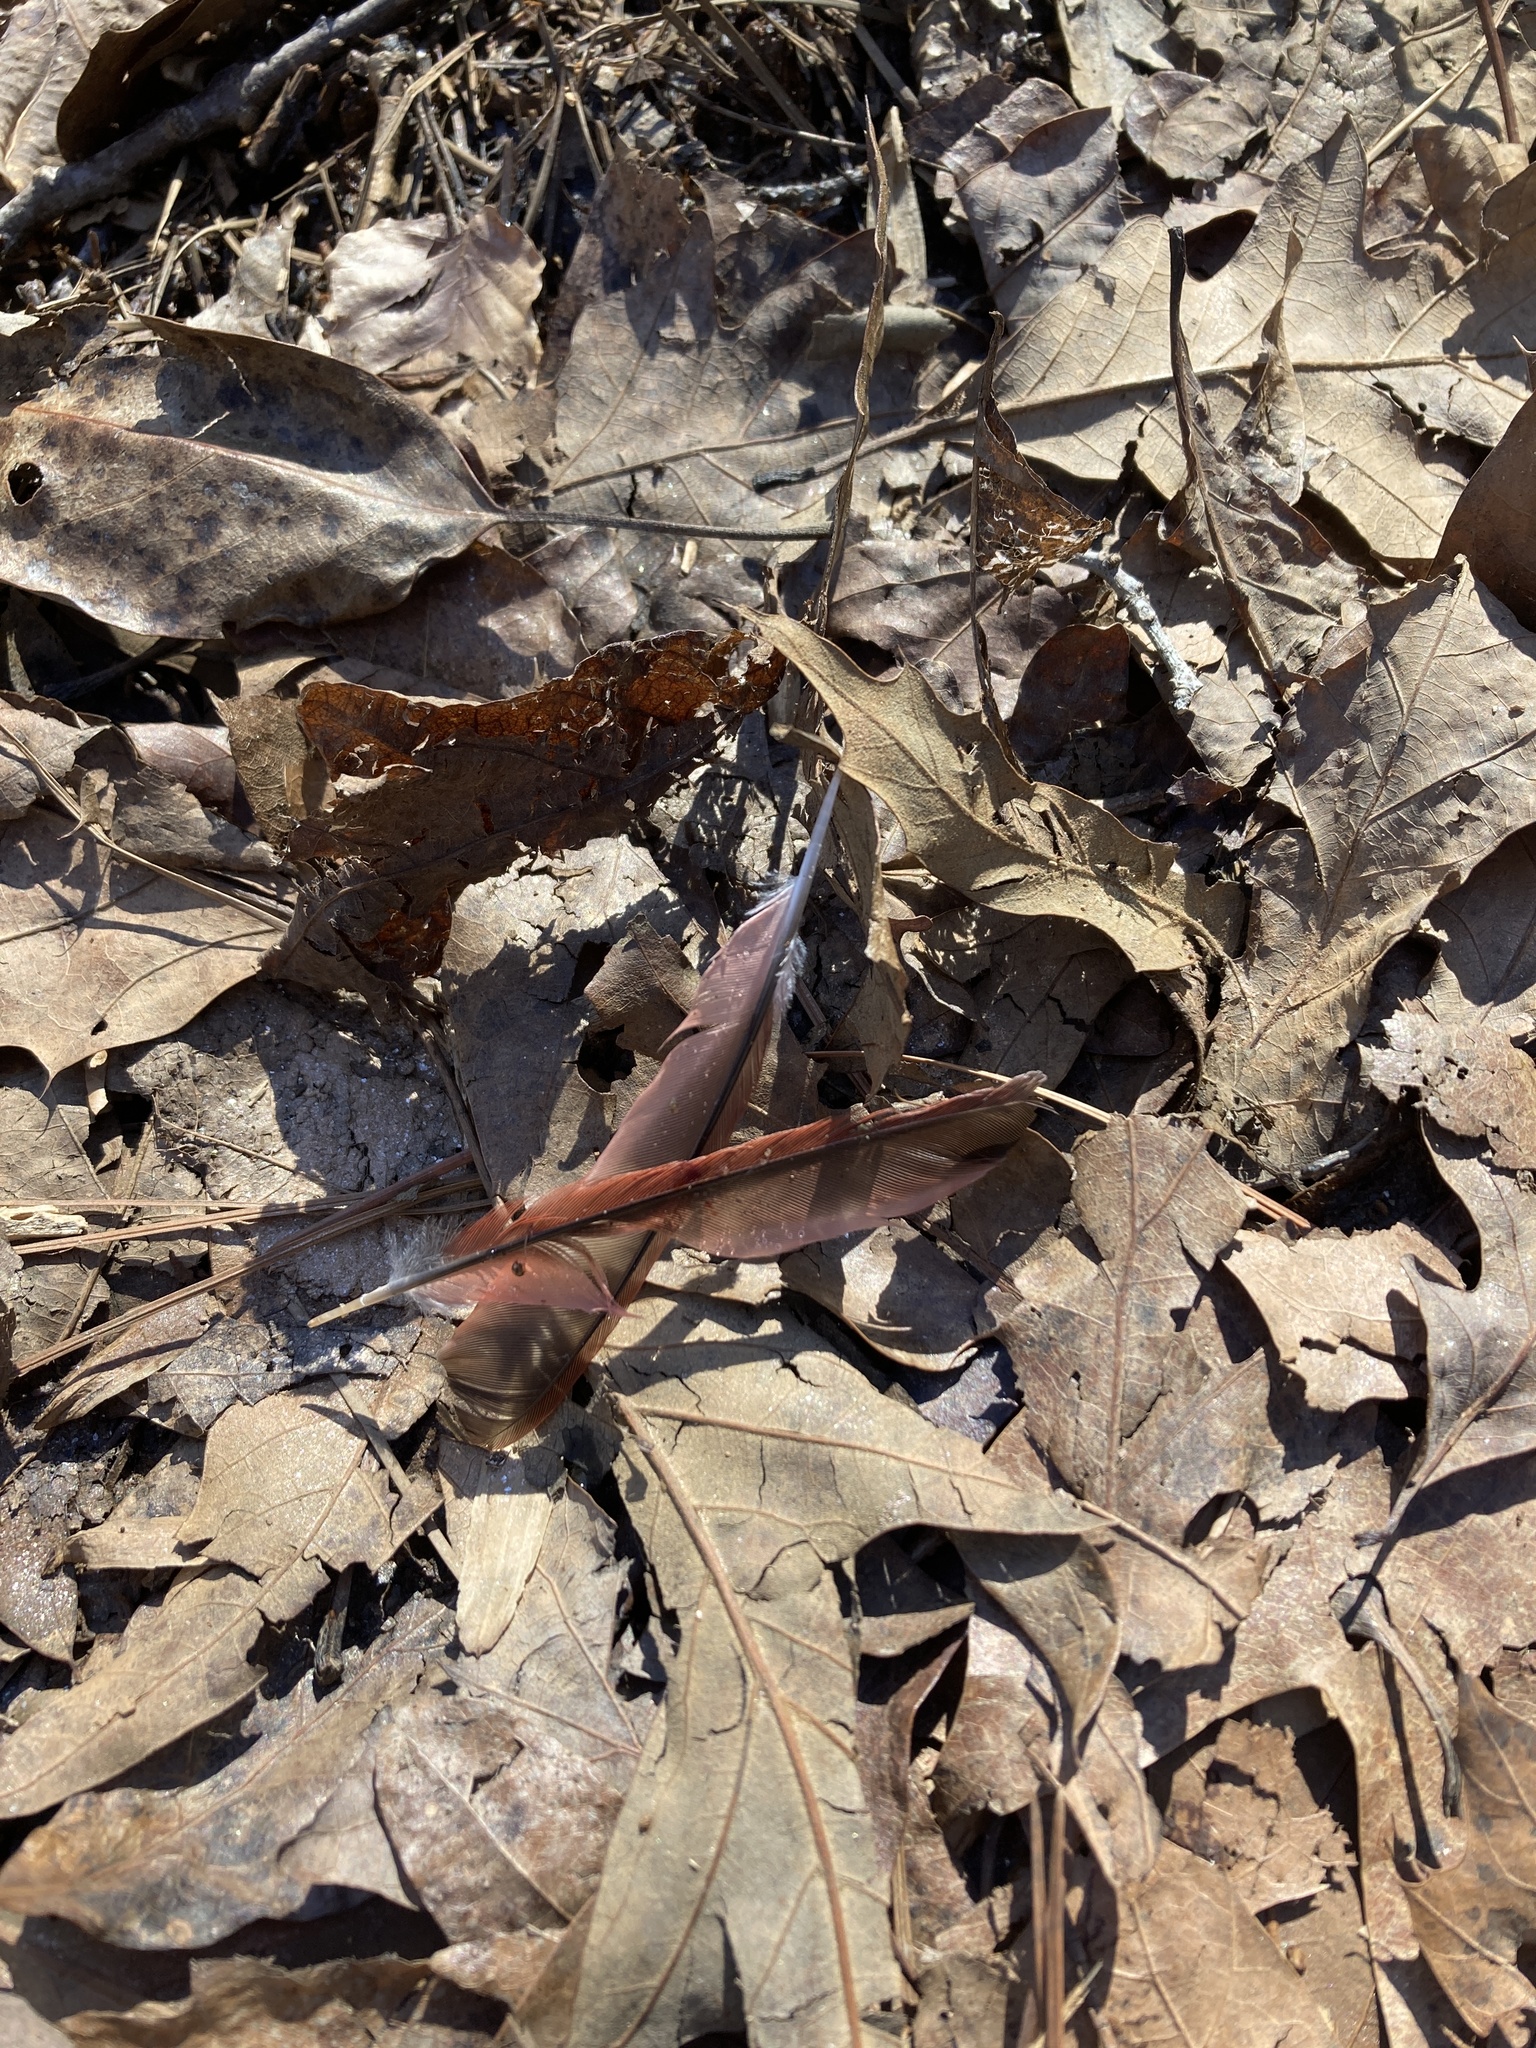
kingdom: Animalia
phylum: Chordata
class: Aves
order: Passeriformes
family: Cardinalidae
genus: Cardinalis
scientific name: Cardinalis cardinalis
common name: Northern cardinal
